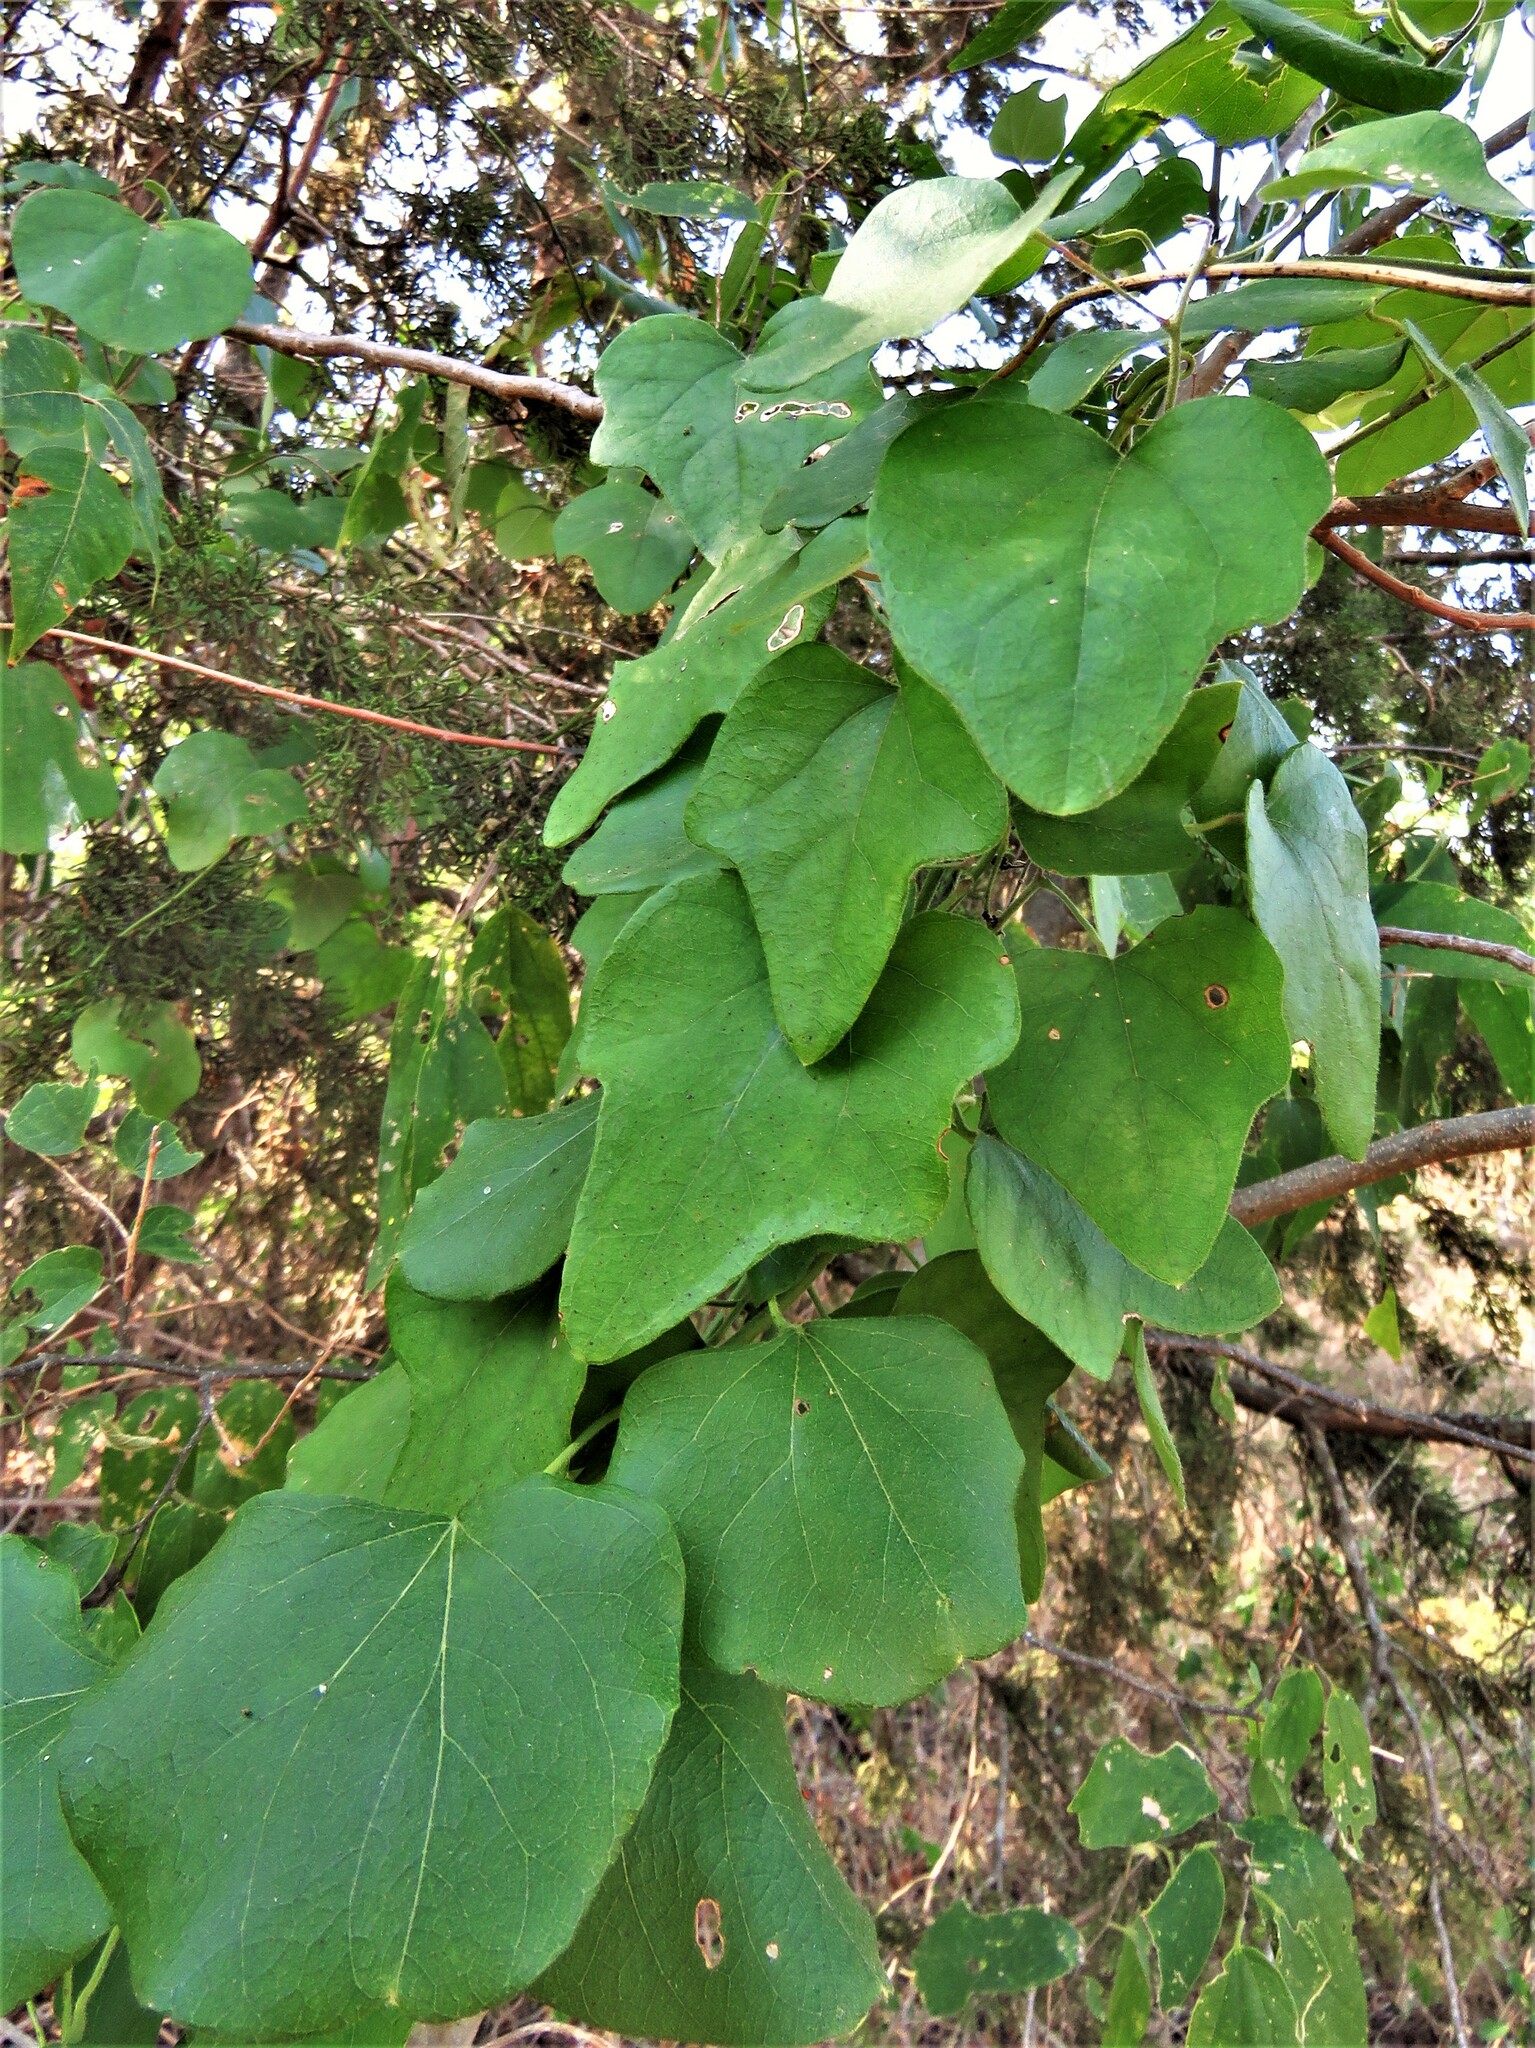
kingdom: Plantae
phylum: Tracheophyta
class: Magnoliopsida
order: Ranunculales
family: Menispermaceae
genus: Cocculus
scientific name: Cocculus carolinus
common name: Carolina moonseed
